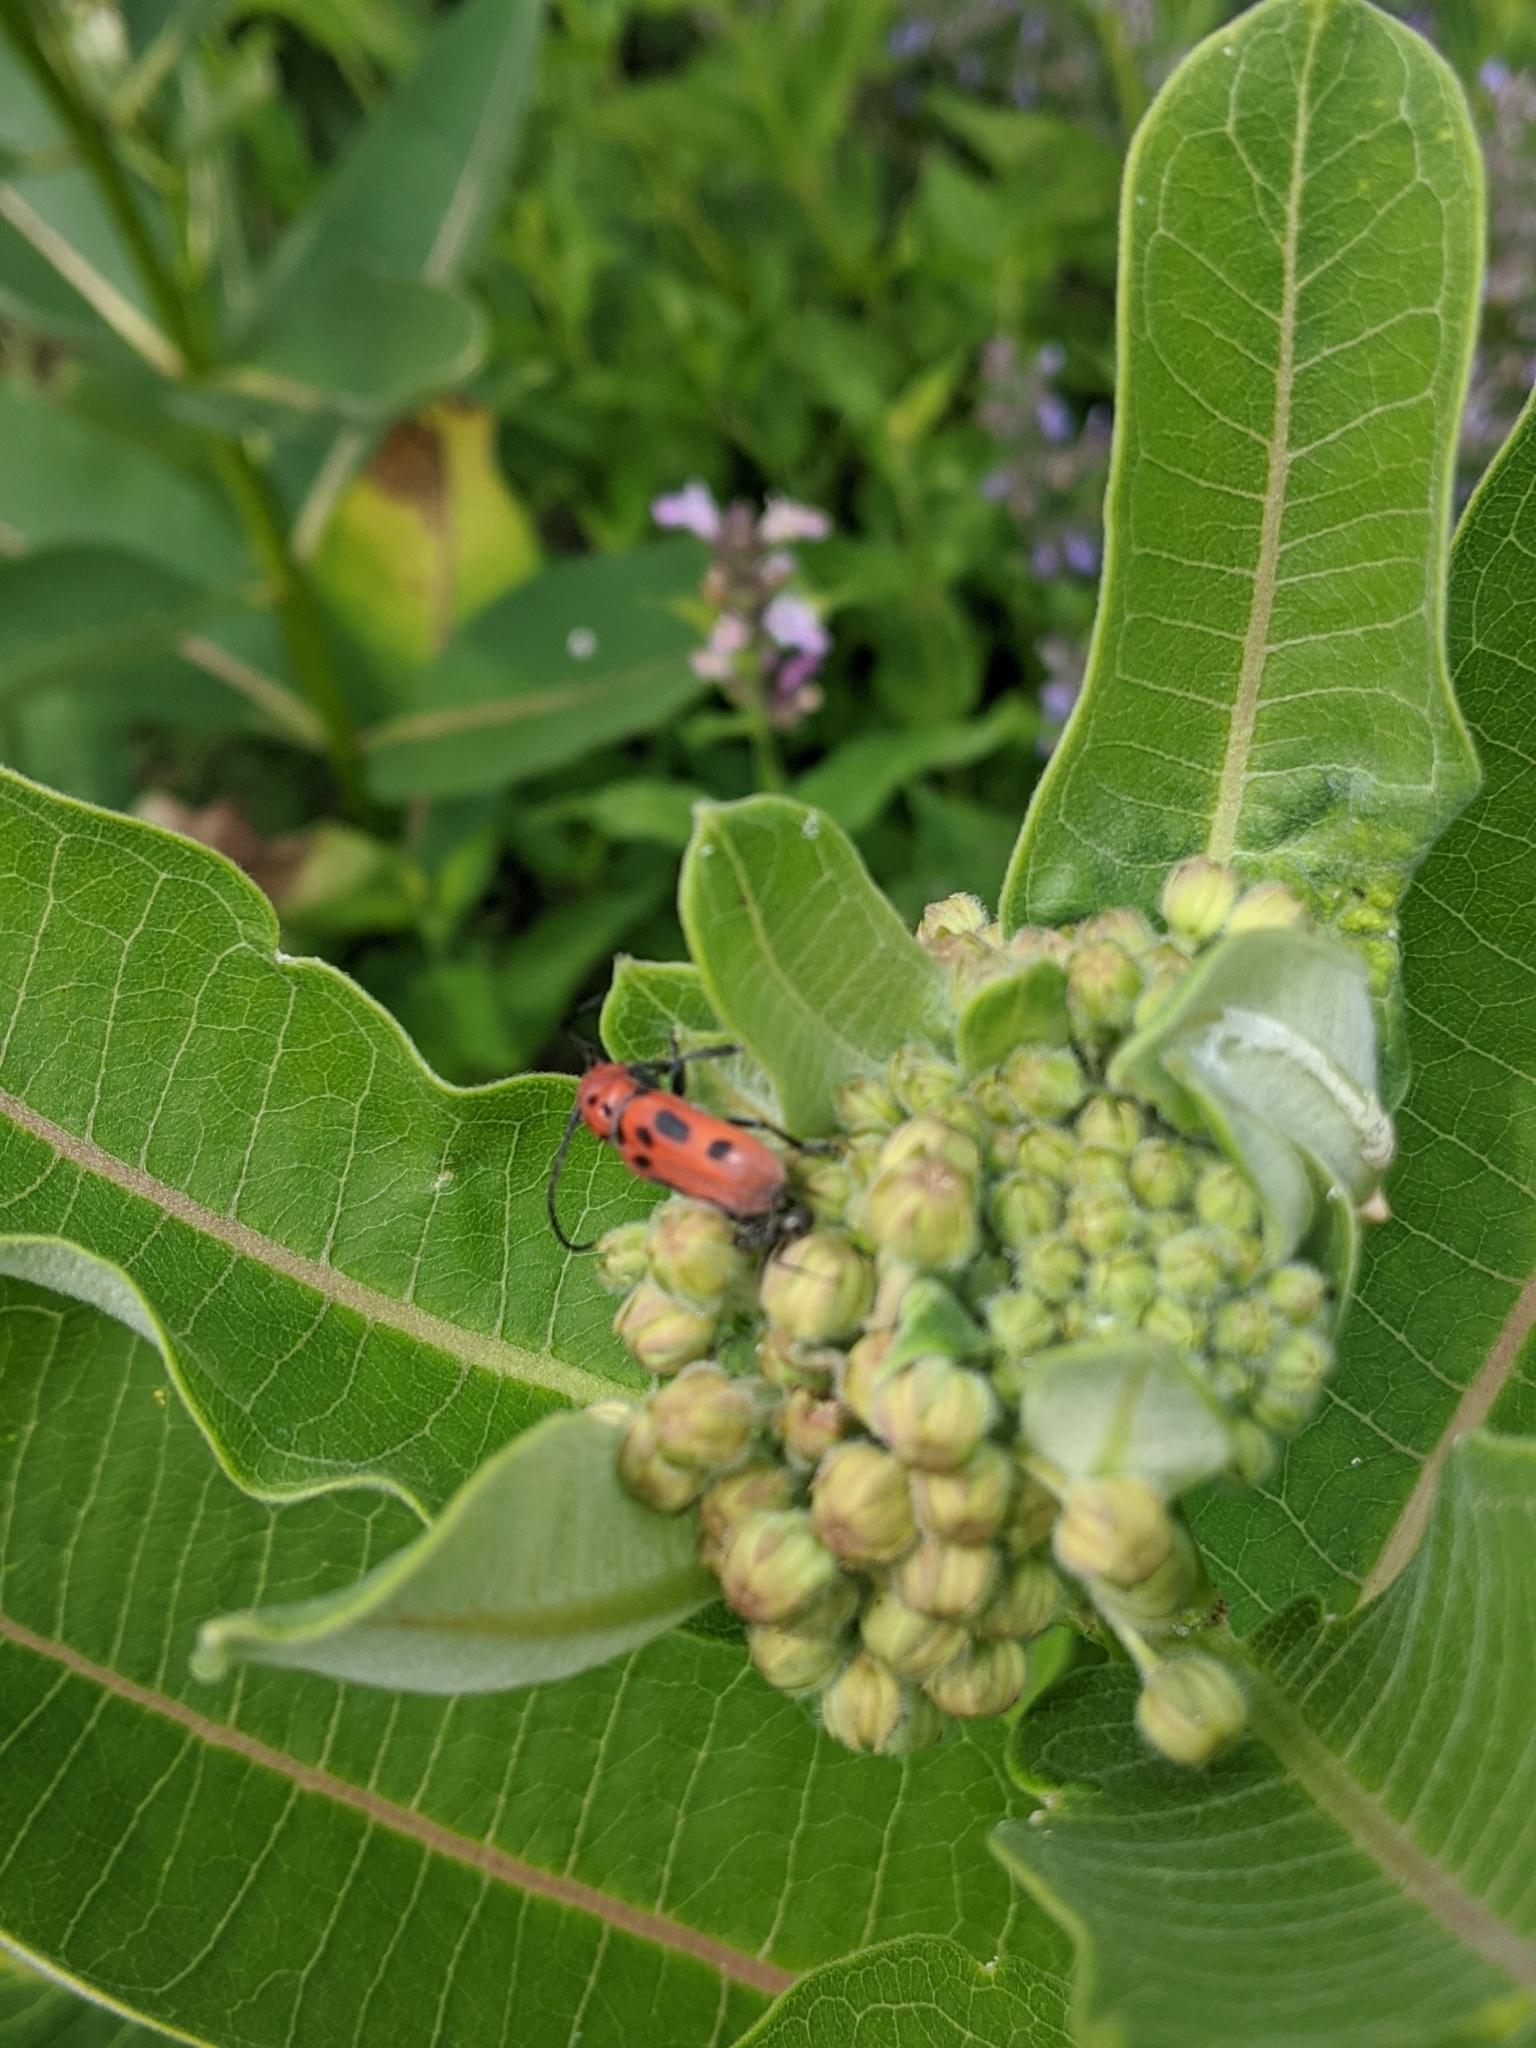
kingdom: Animalia
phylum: Arthropoda
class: Insecta
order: Coleoptera
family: Cerambycidae
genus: Tetraopes
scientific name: Tetraopes tetrophthalmus
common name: Red milkweed beetle
